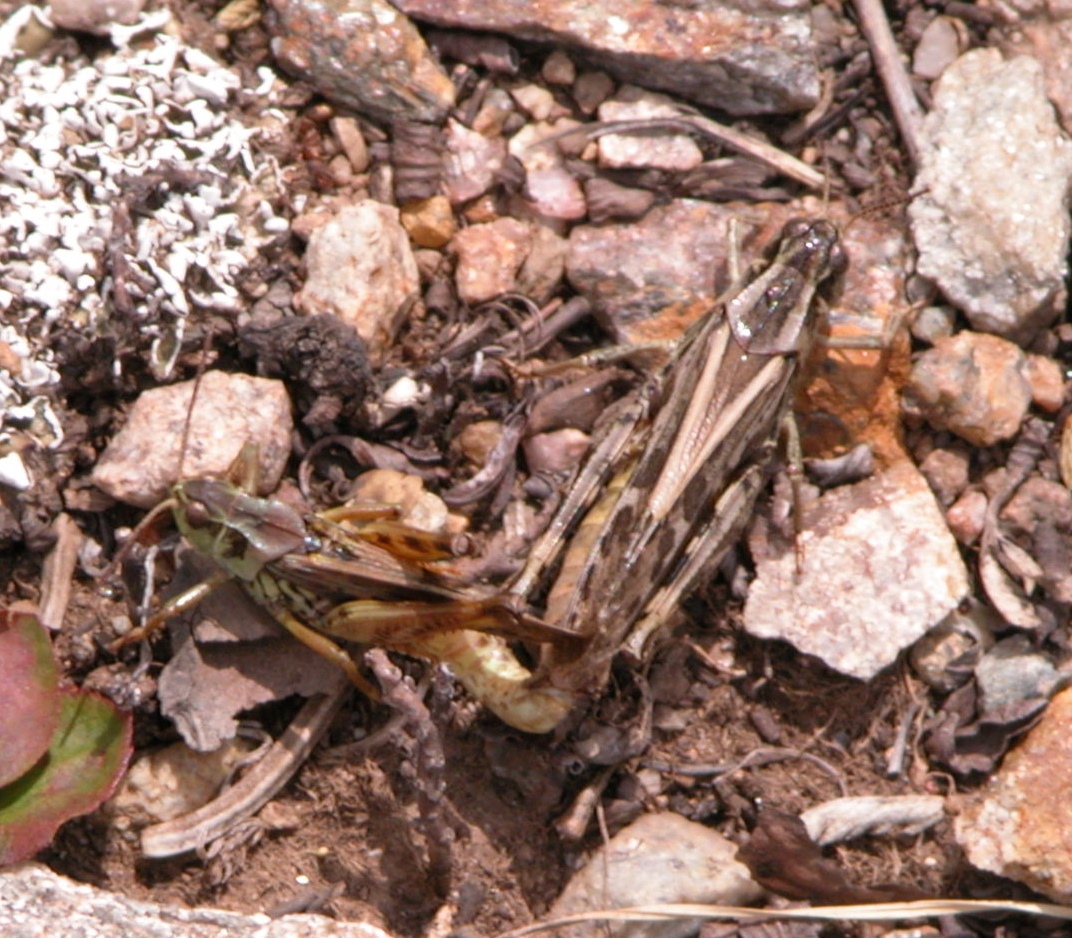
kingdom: Animalia
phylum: Arthropoda
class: Insecta
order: Orthoptera
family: Acrididae
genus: Camnula
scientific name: Camnula pellucida
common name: Clear-winged grasshopper
